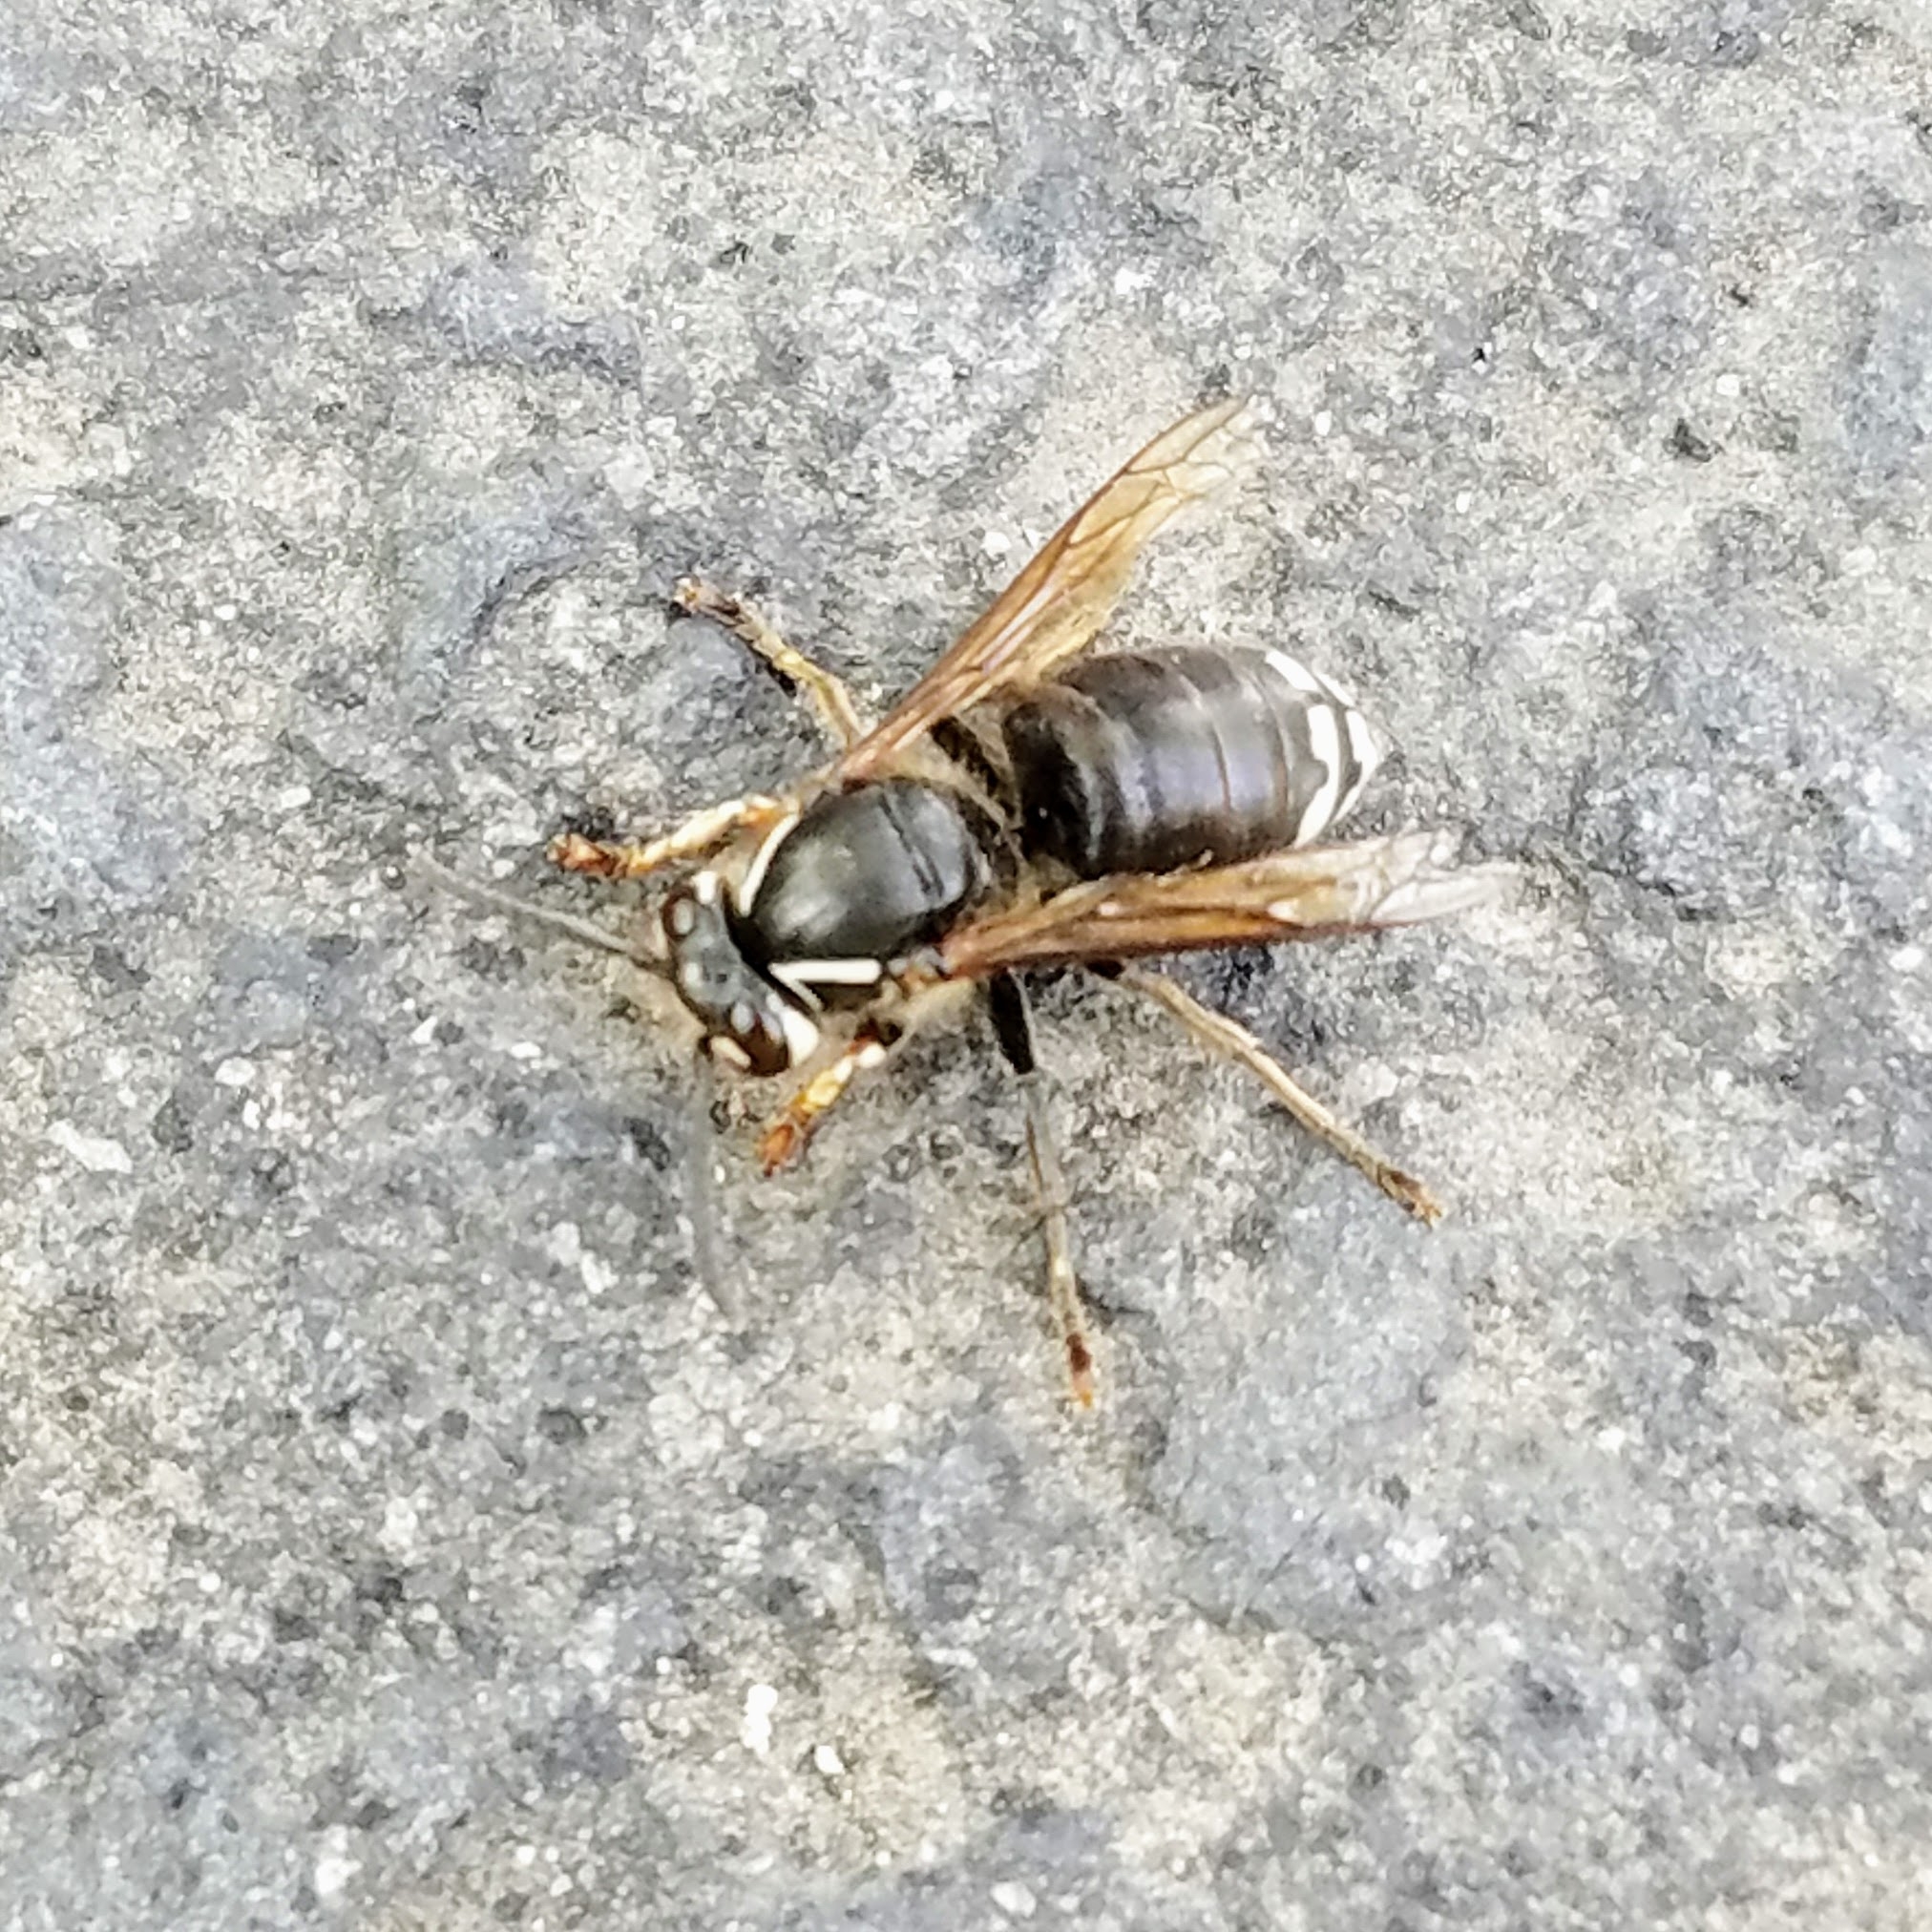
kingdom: Animalia
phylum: Arthropoda
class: Insecta
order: Hymenoptera
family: Vespidae
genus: Dolichovespula
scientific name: Dolichovespula maculata
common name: Bald-faced hornet
